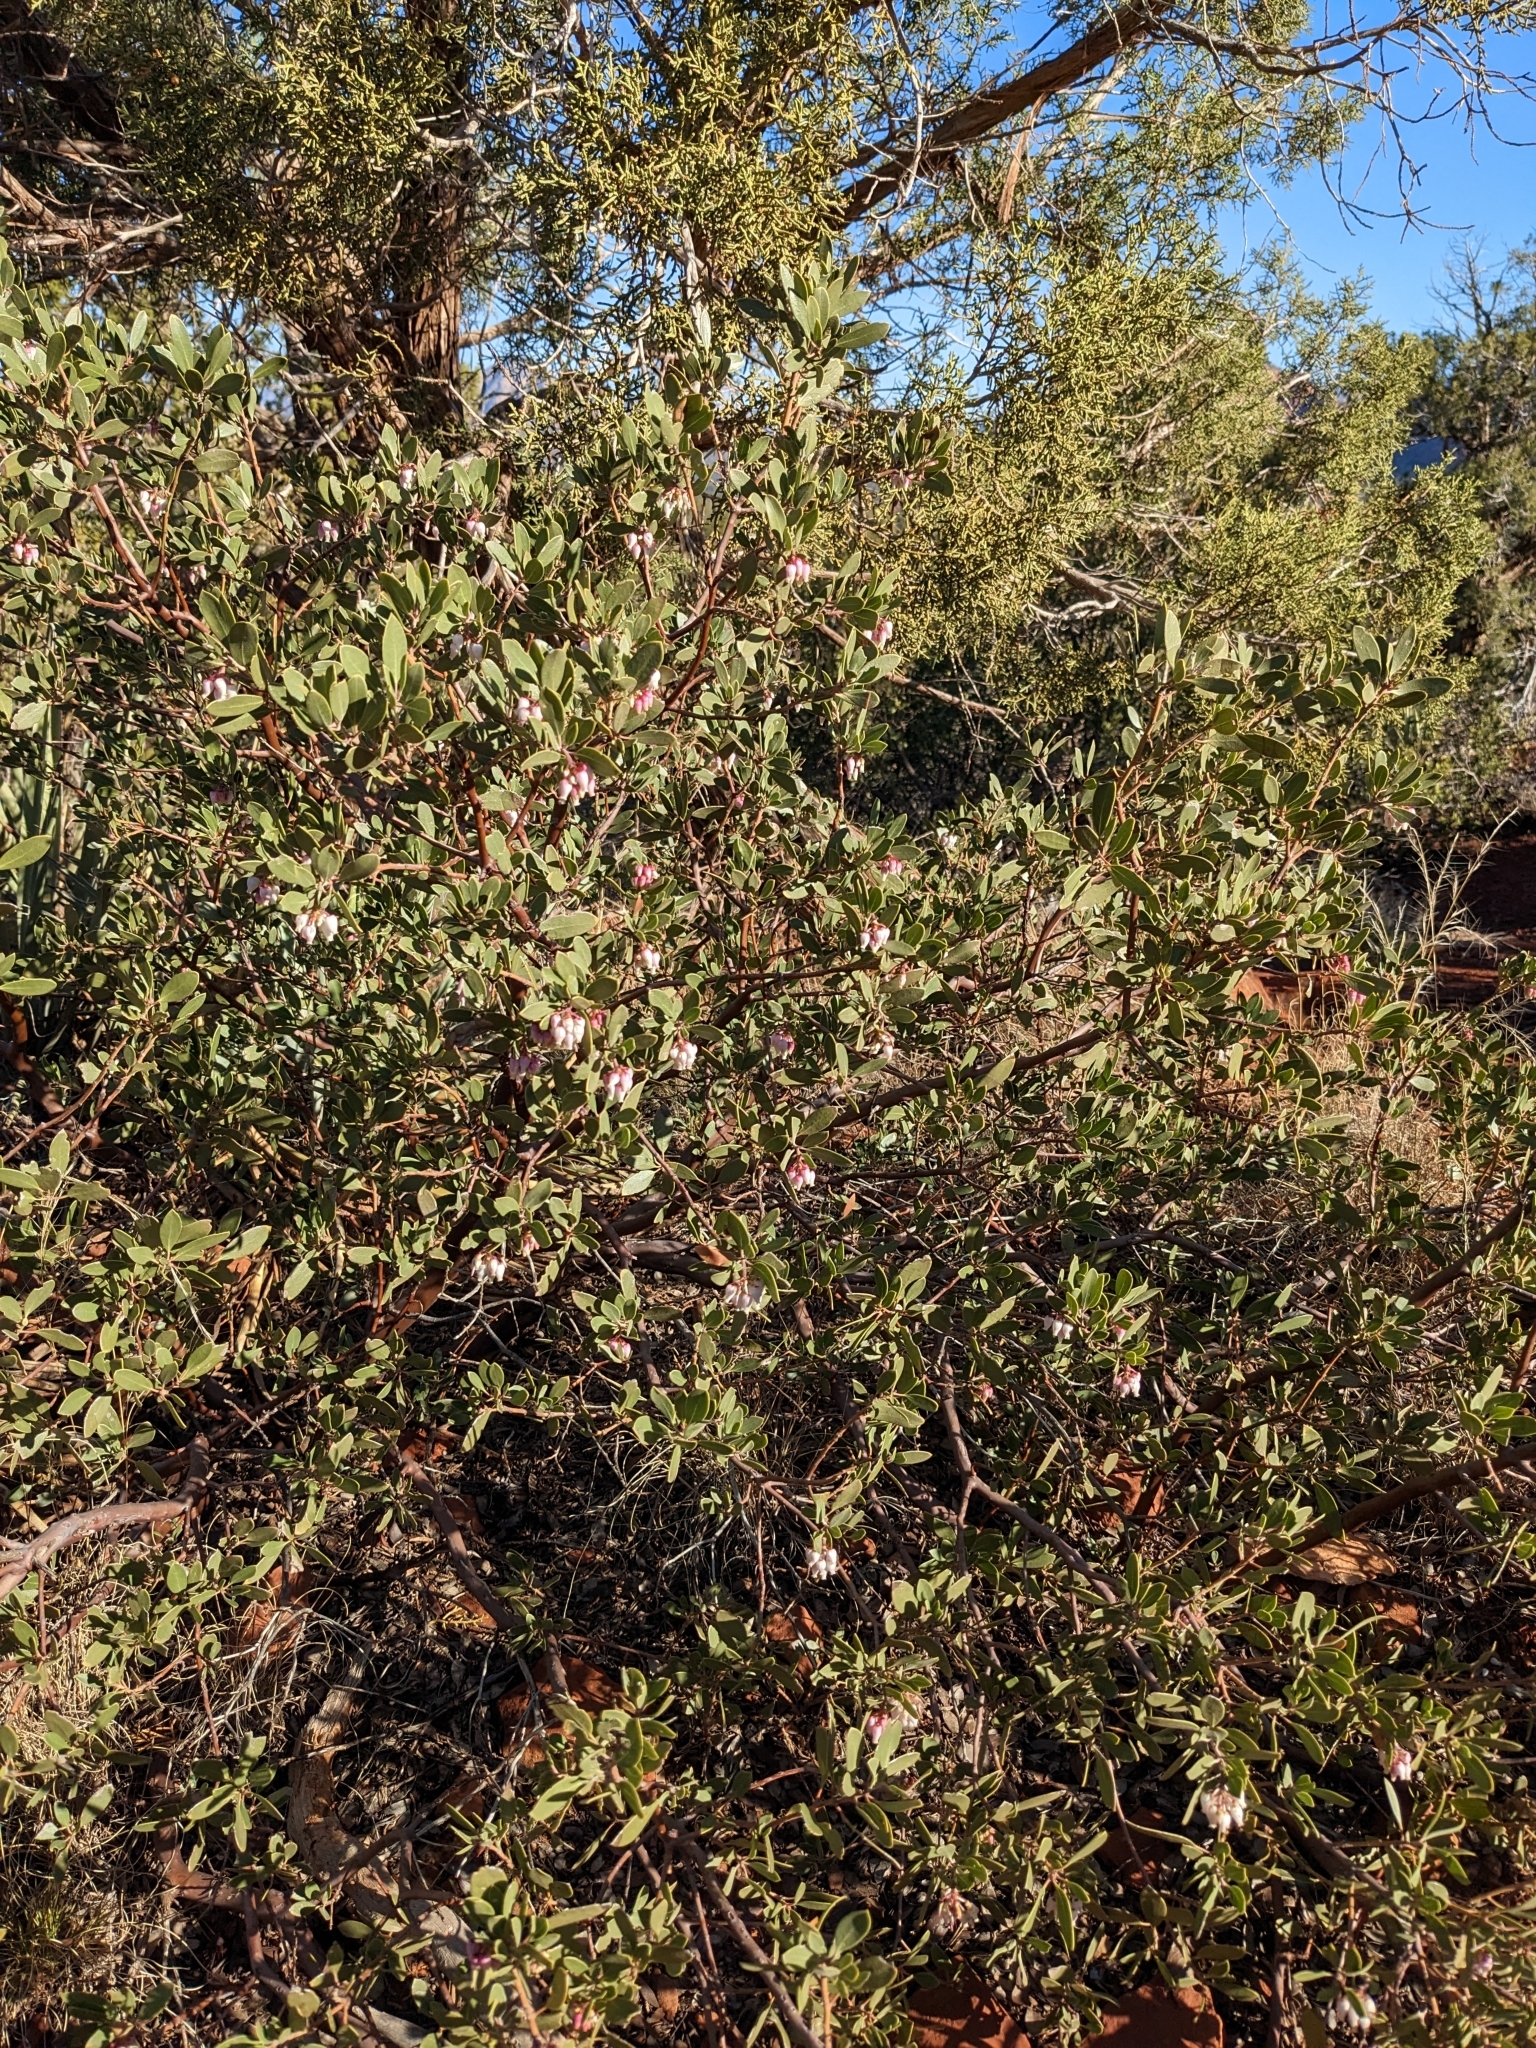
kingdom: Plantae
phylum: Tracheophyta
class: Magnoliopsida
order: Ericales
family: Ericaceae
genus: Arctostaphylos
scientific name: Arctostaphylos pungens
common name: Mexican manzanita
